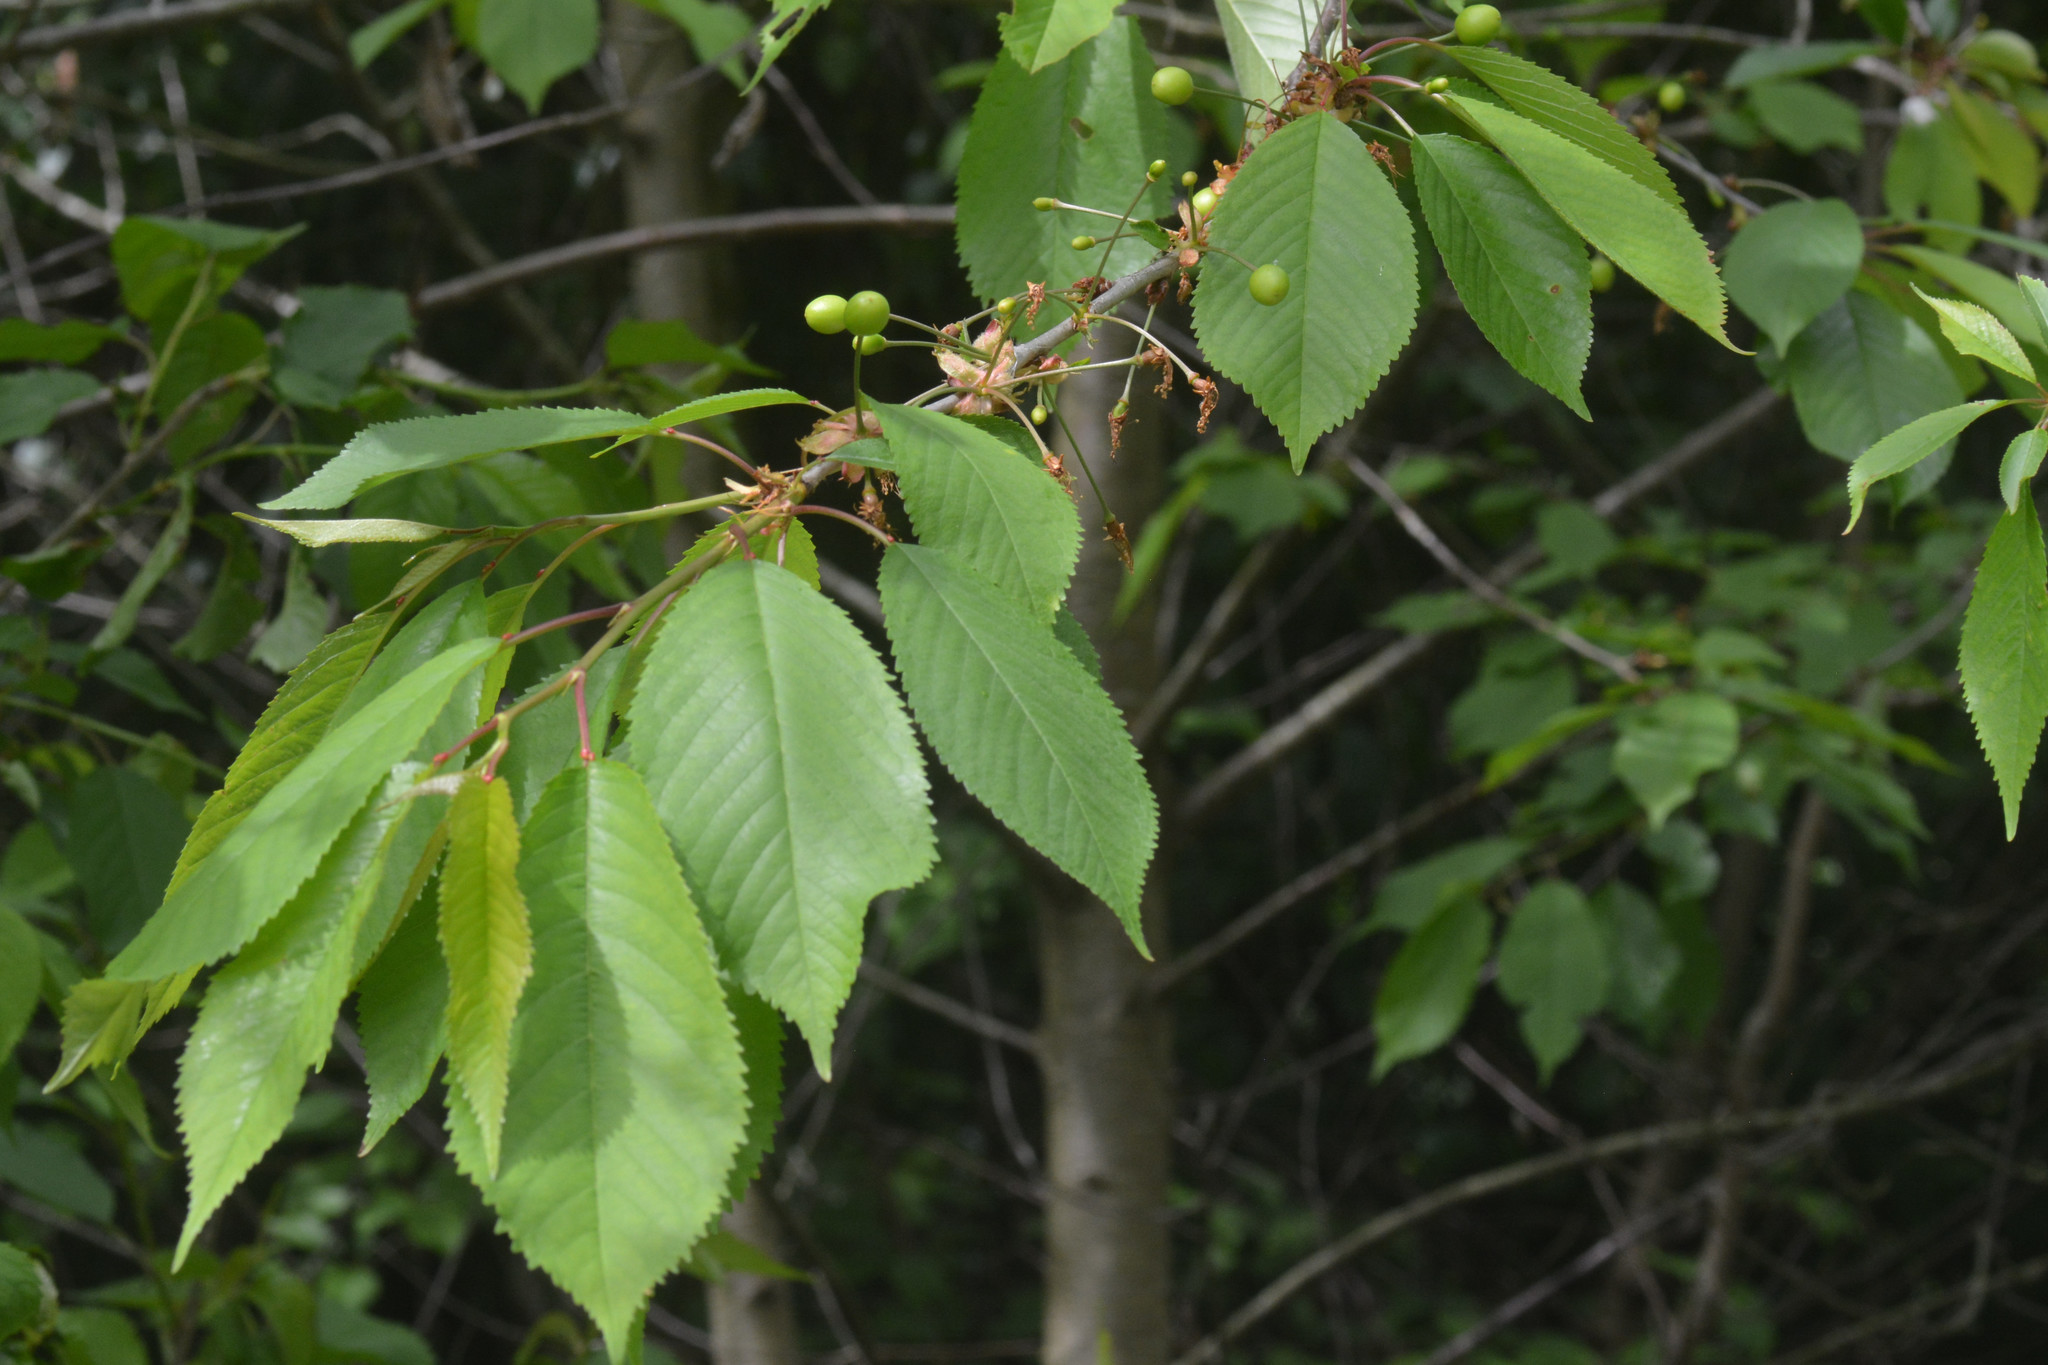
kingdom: Plantae
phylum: Tracheophyta
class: Magnoliopsida
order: Rosales
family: Rosaceae
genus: Prunus
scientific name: Prunus avium
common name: Sweet cherry
